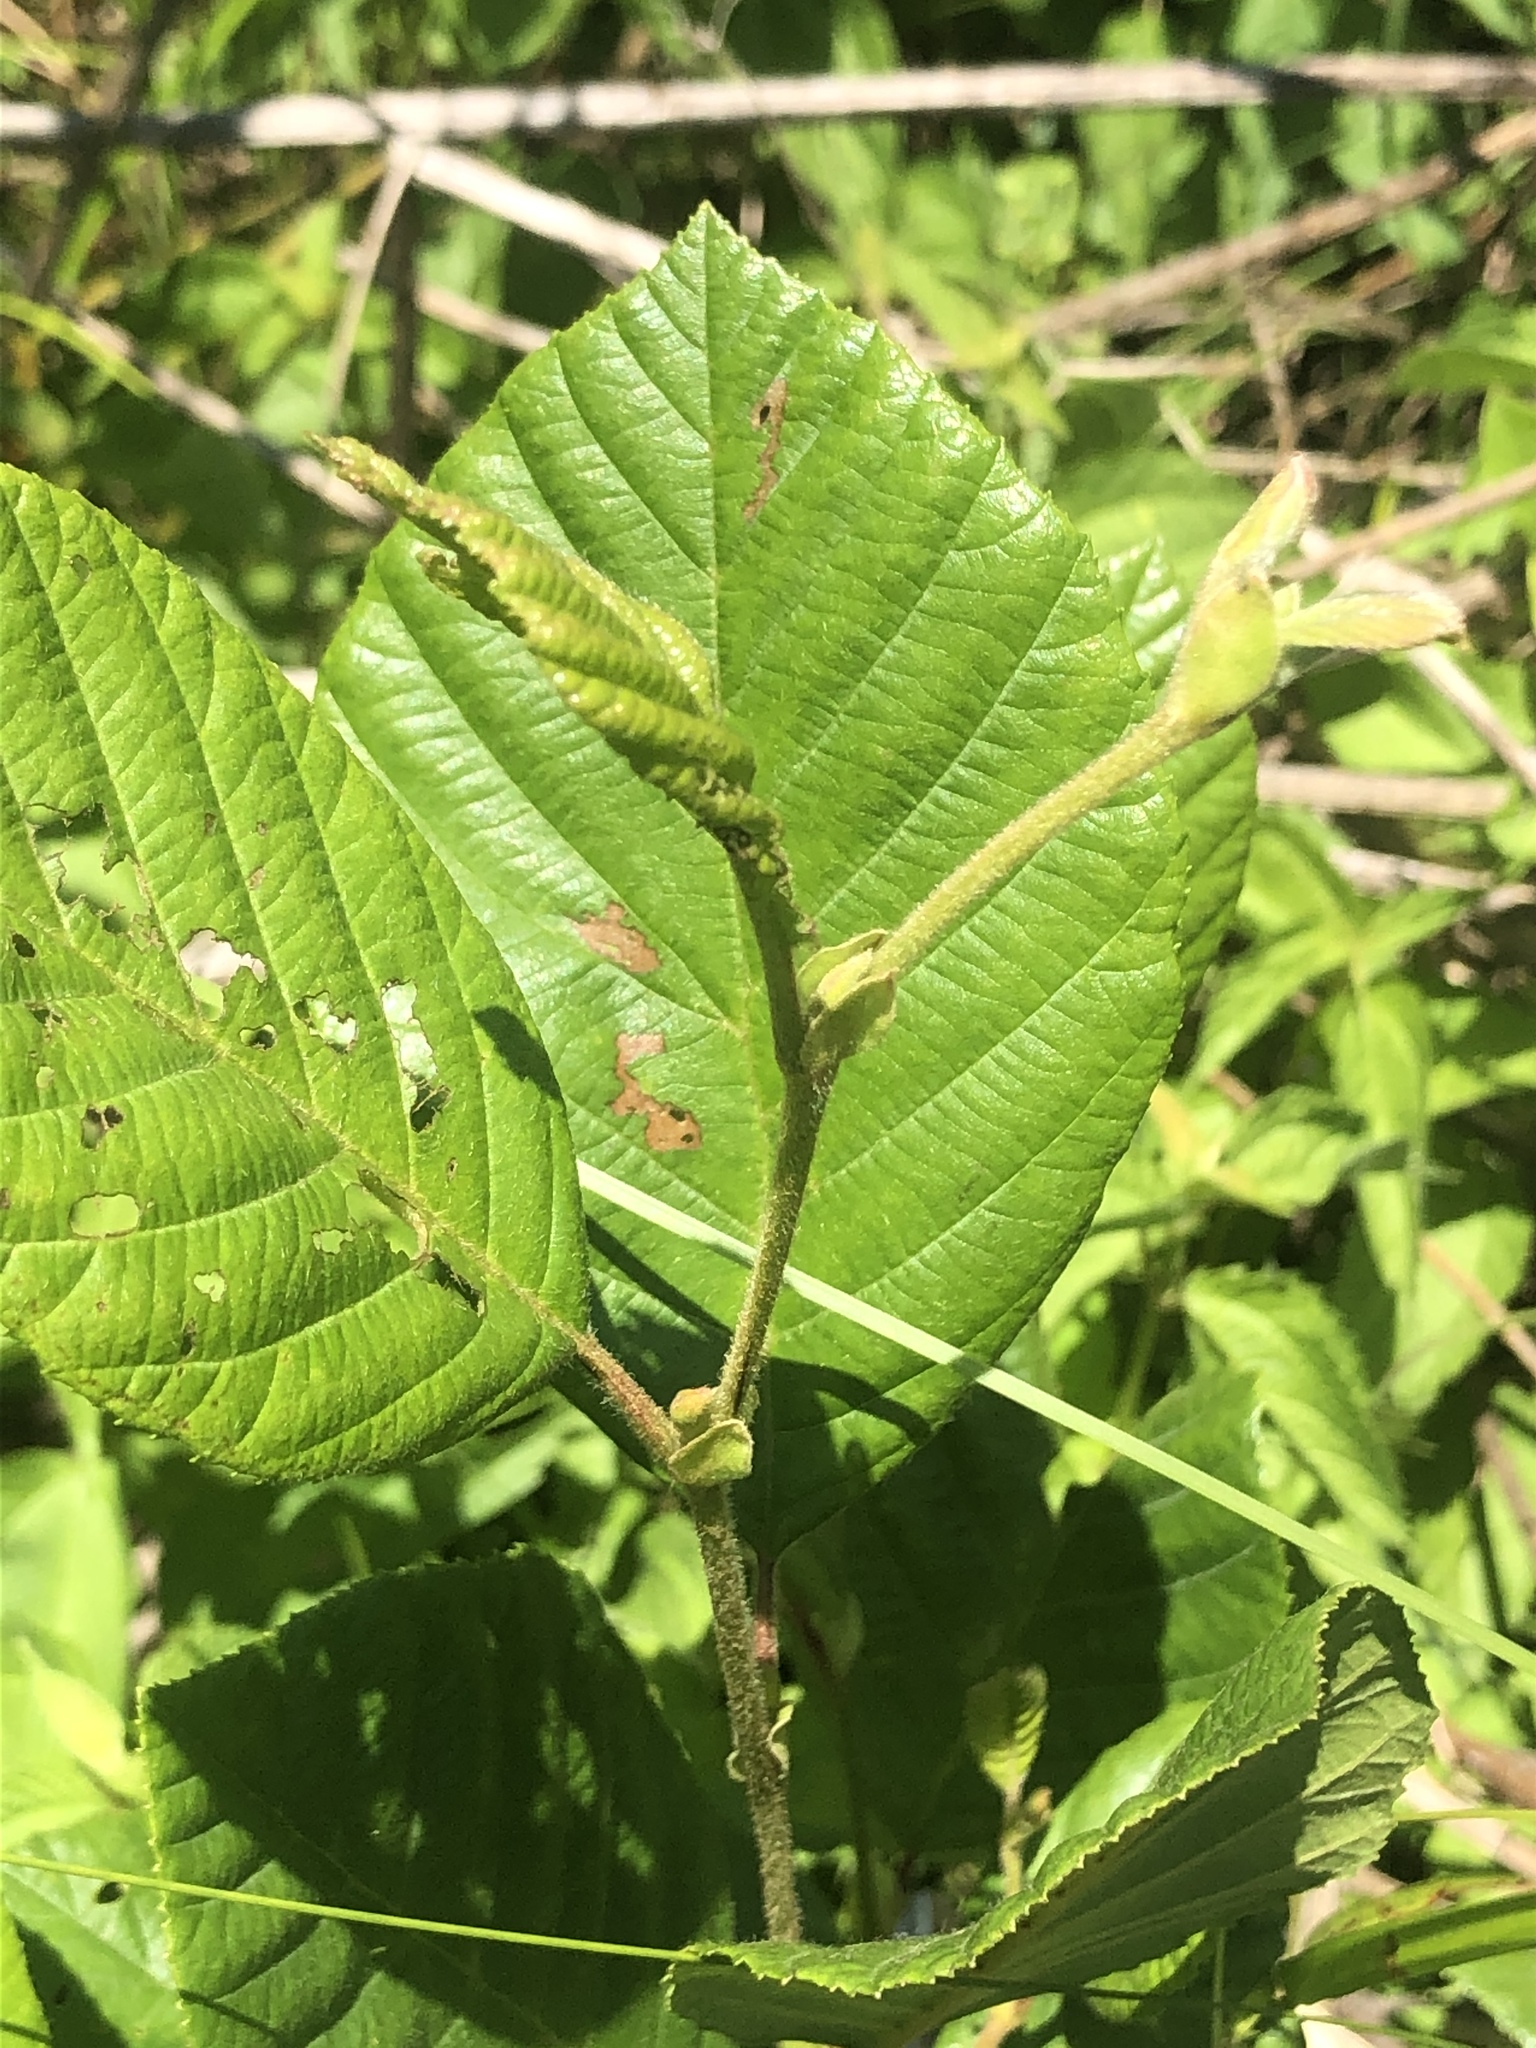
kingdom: Plantae
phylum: Tracheophyta
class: Magnoliopsida
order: Fagales
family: Betulaceae
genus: Alnus
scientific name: Alnus serrulata
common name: Hazel alder
